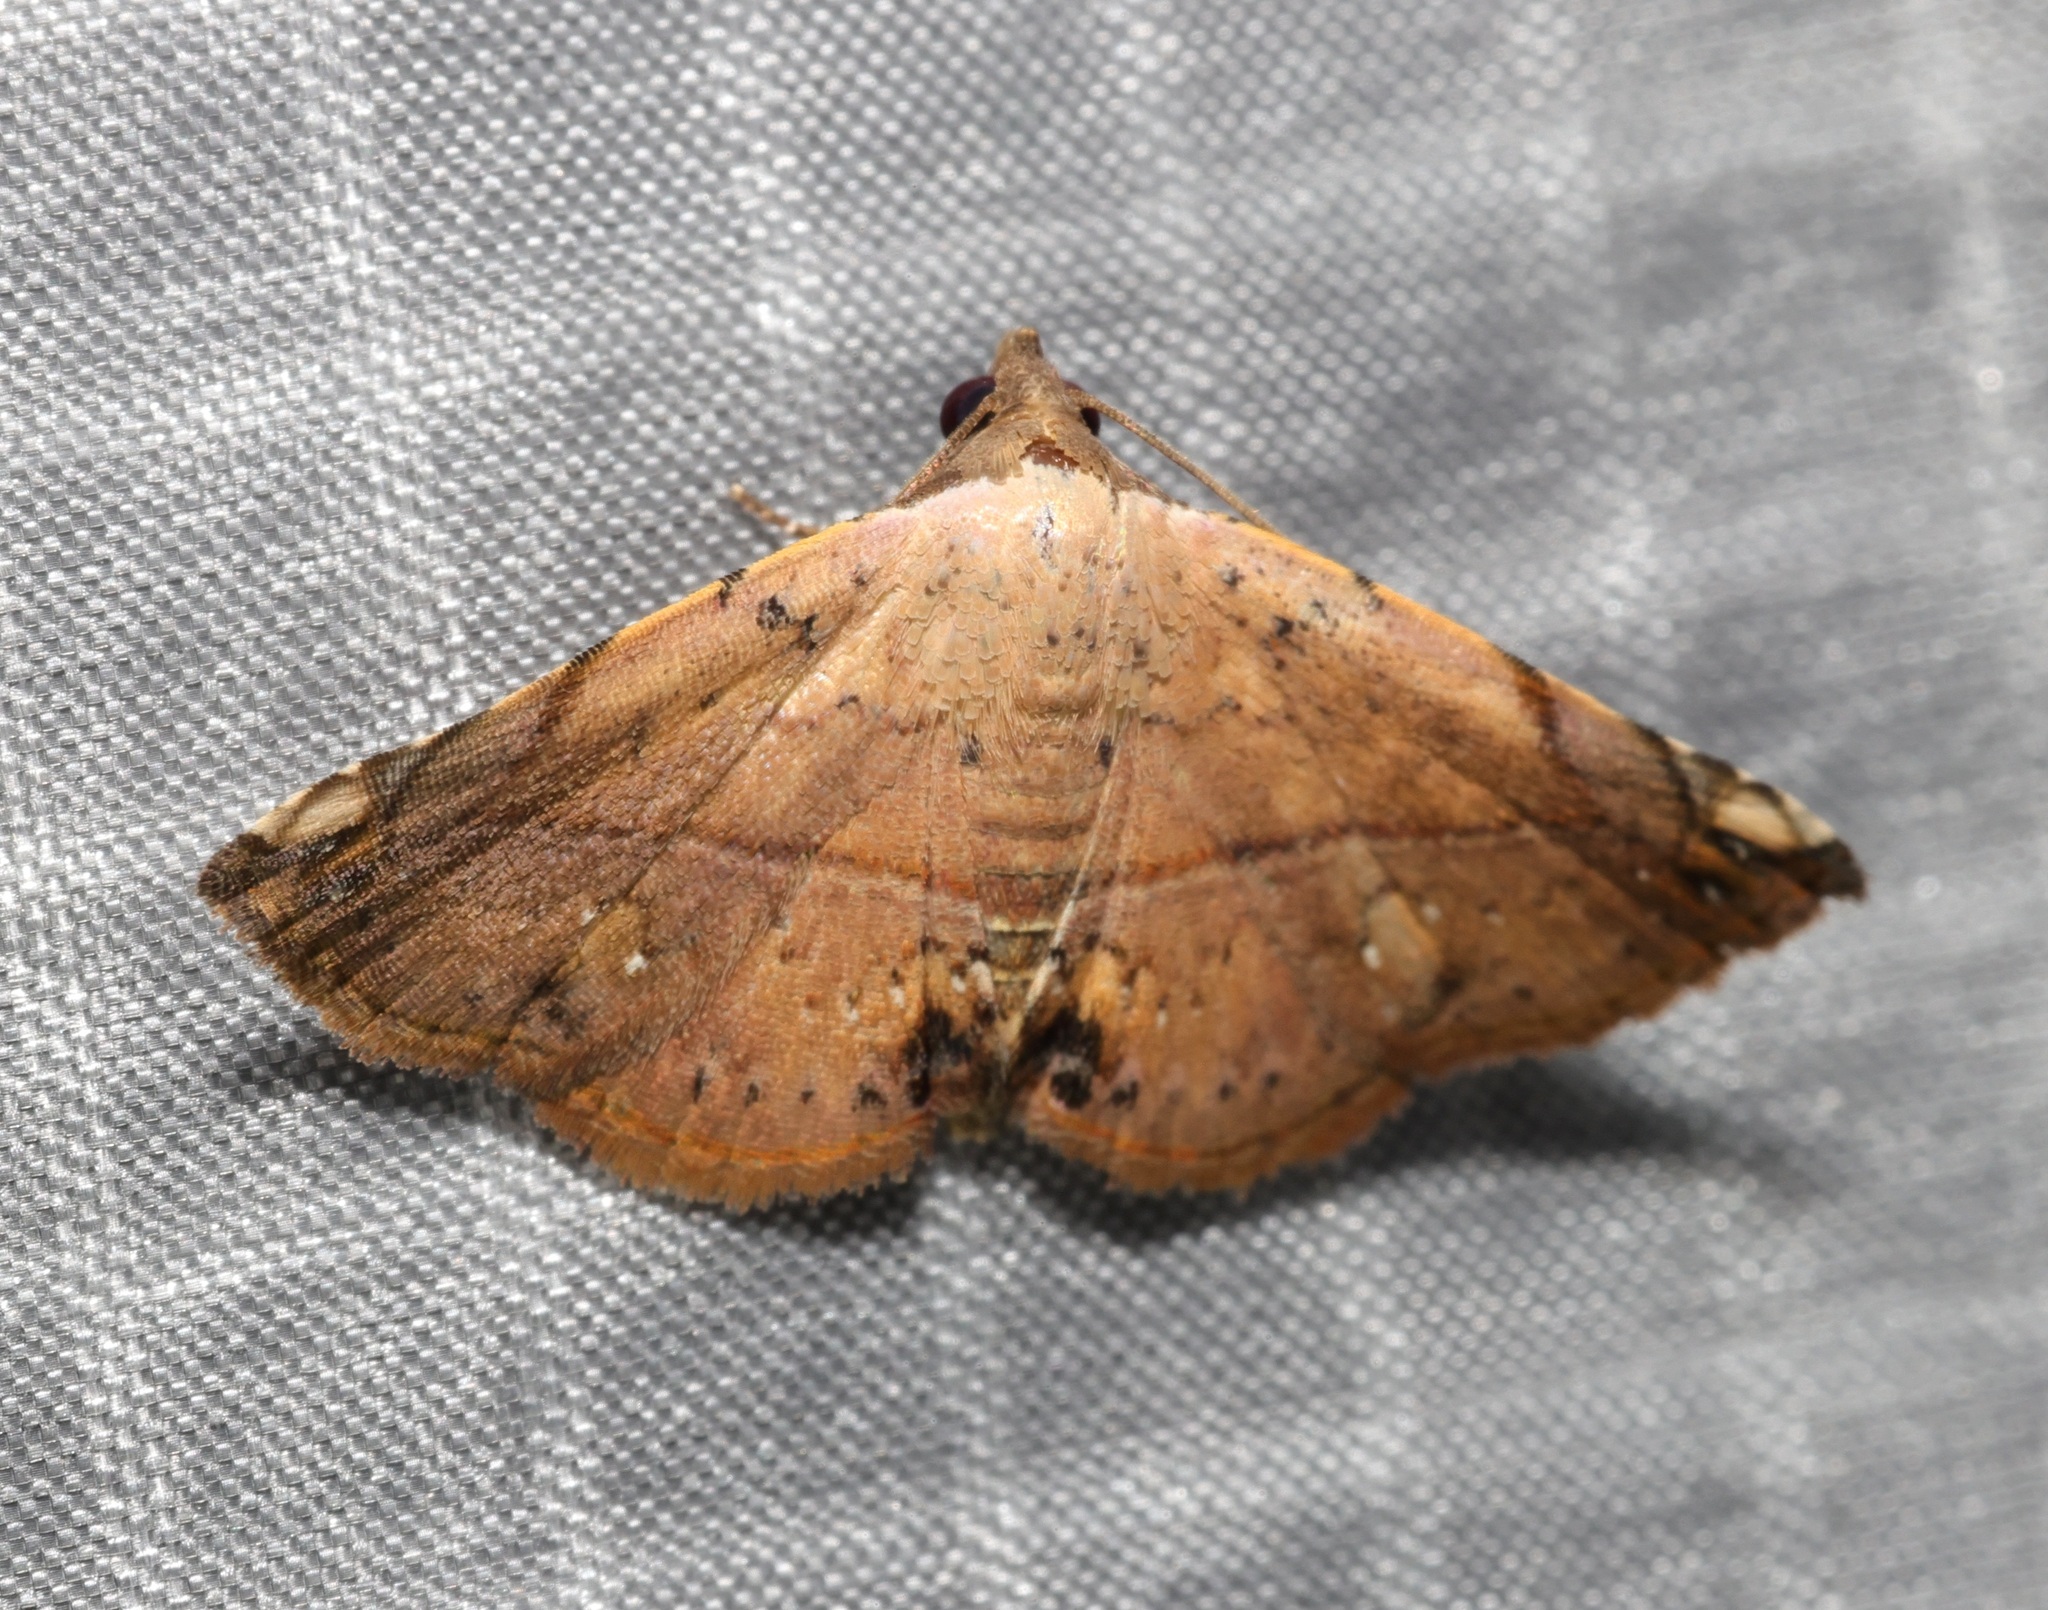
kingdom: Animalia
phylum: Arthropoda
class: Insecta
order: Lepidoptera
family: Noctuidae
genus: Eublemma
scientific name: Eublemma abrupta
